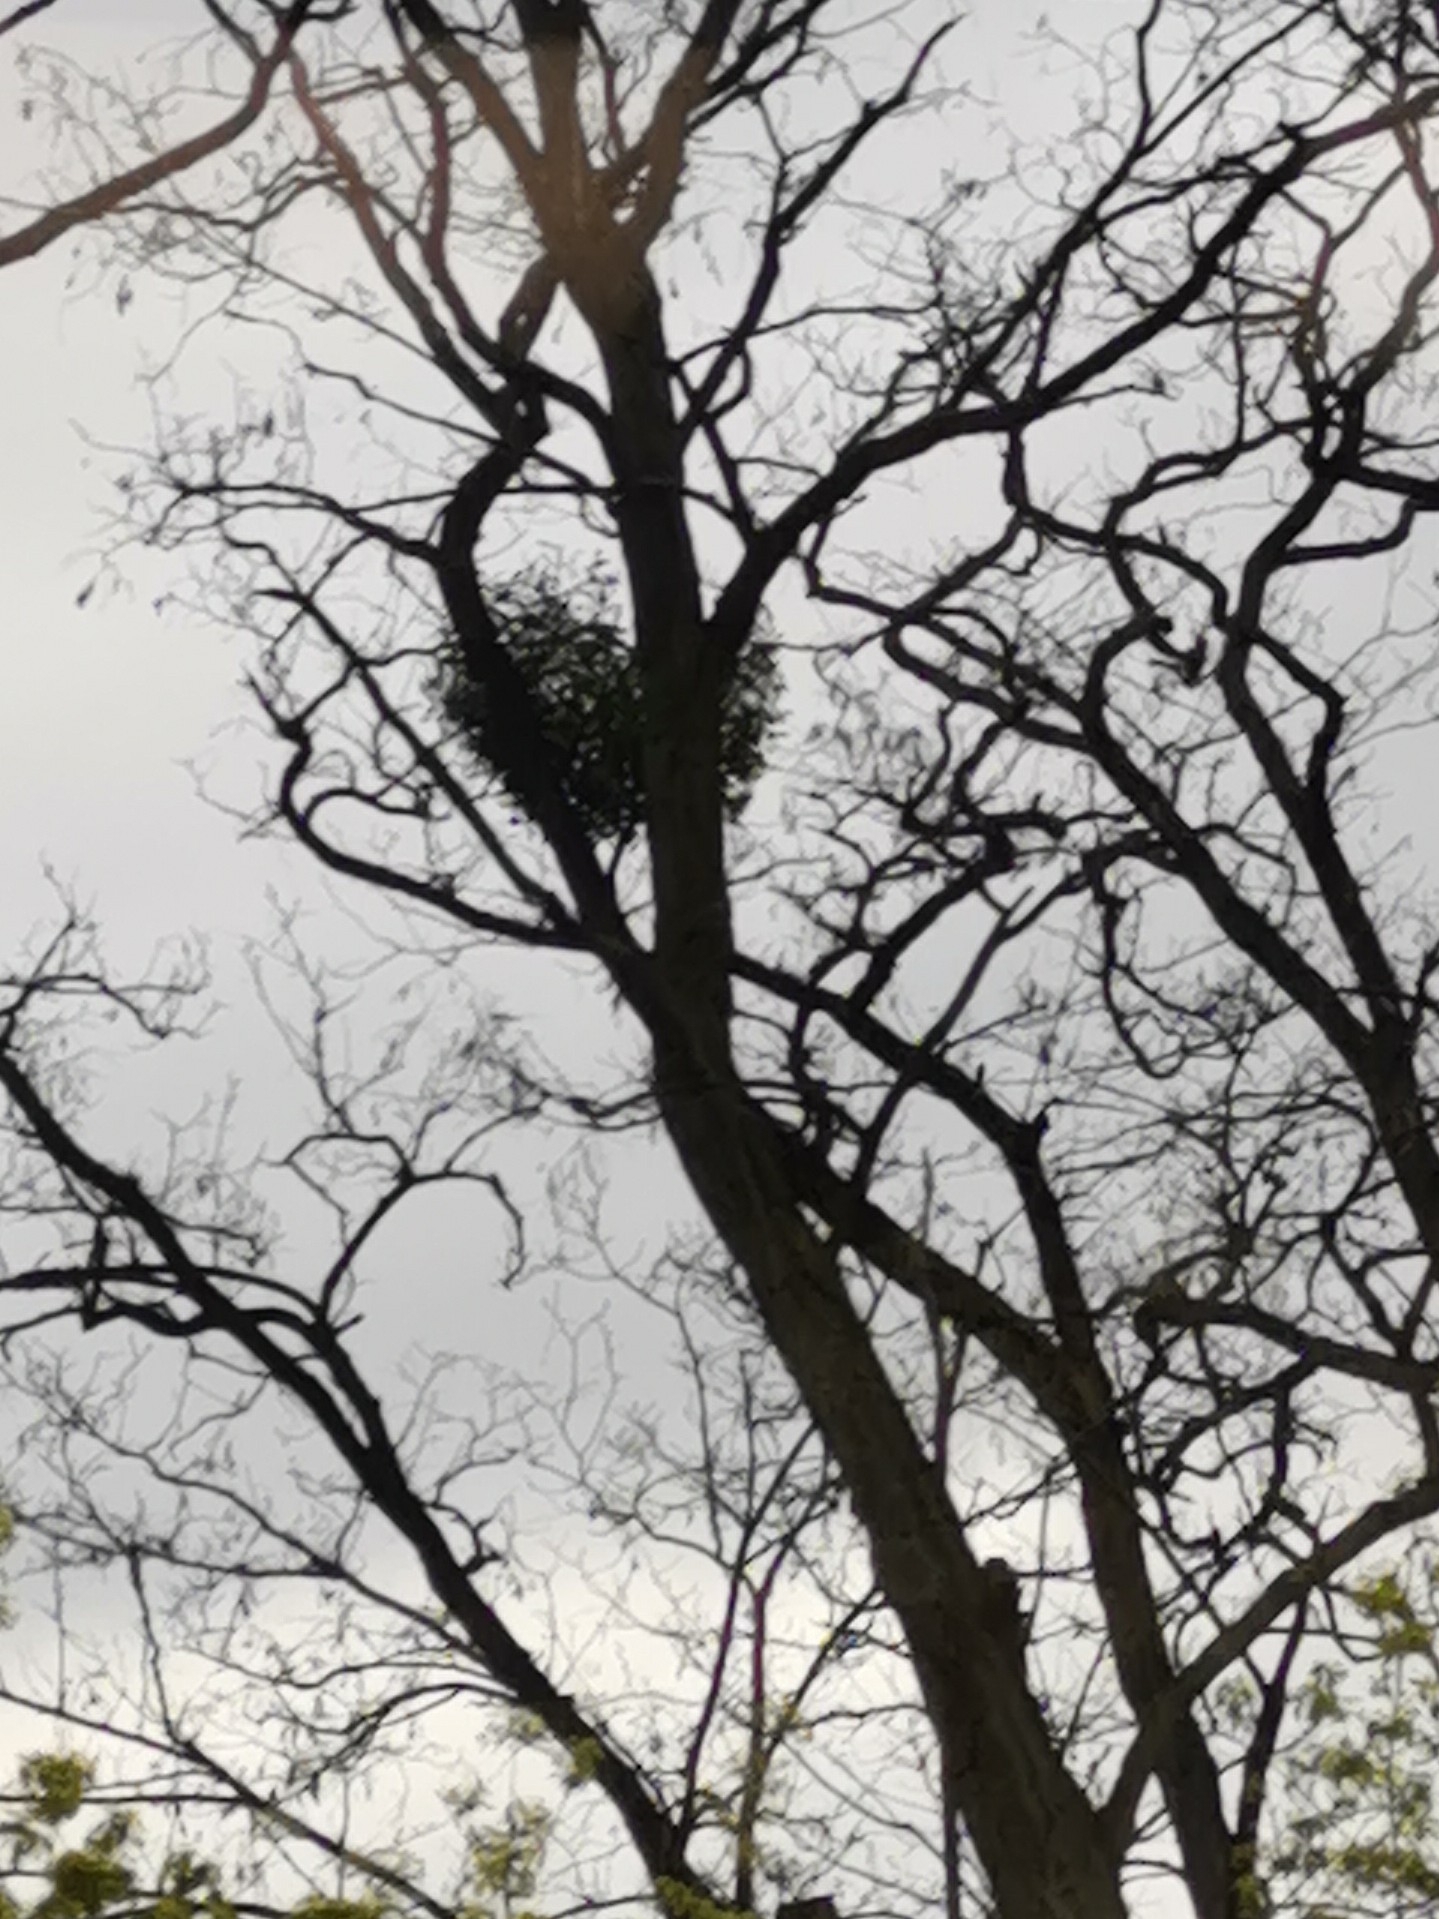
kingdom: Plantae
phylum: Tracheophyta
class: Magnoliopsida
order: Santalales
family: Viscaceae
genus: Viscum
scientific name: Viscum album
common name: Mistletoe
